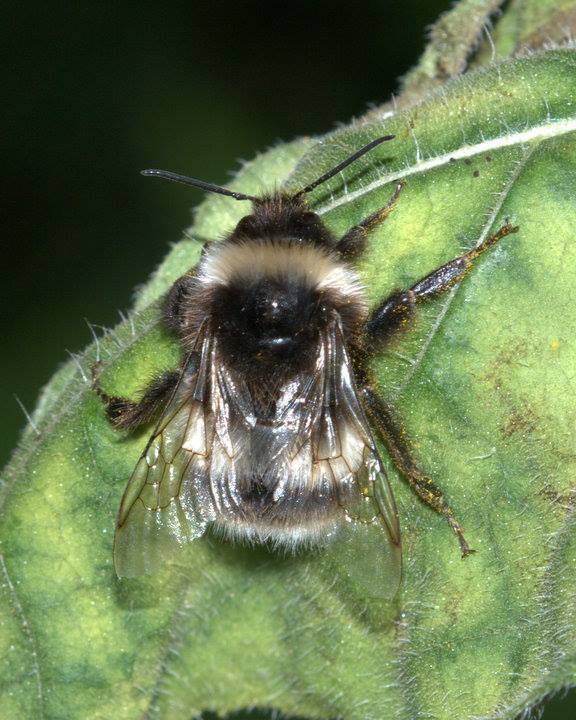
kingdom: Animalia
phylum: Arthropoda
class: Insecta
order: Hymenoptera
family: Apidae
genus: Bombus
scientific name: Bombus cryptarum
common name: Cryptic bumblebee
